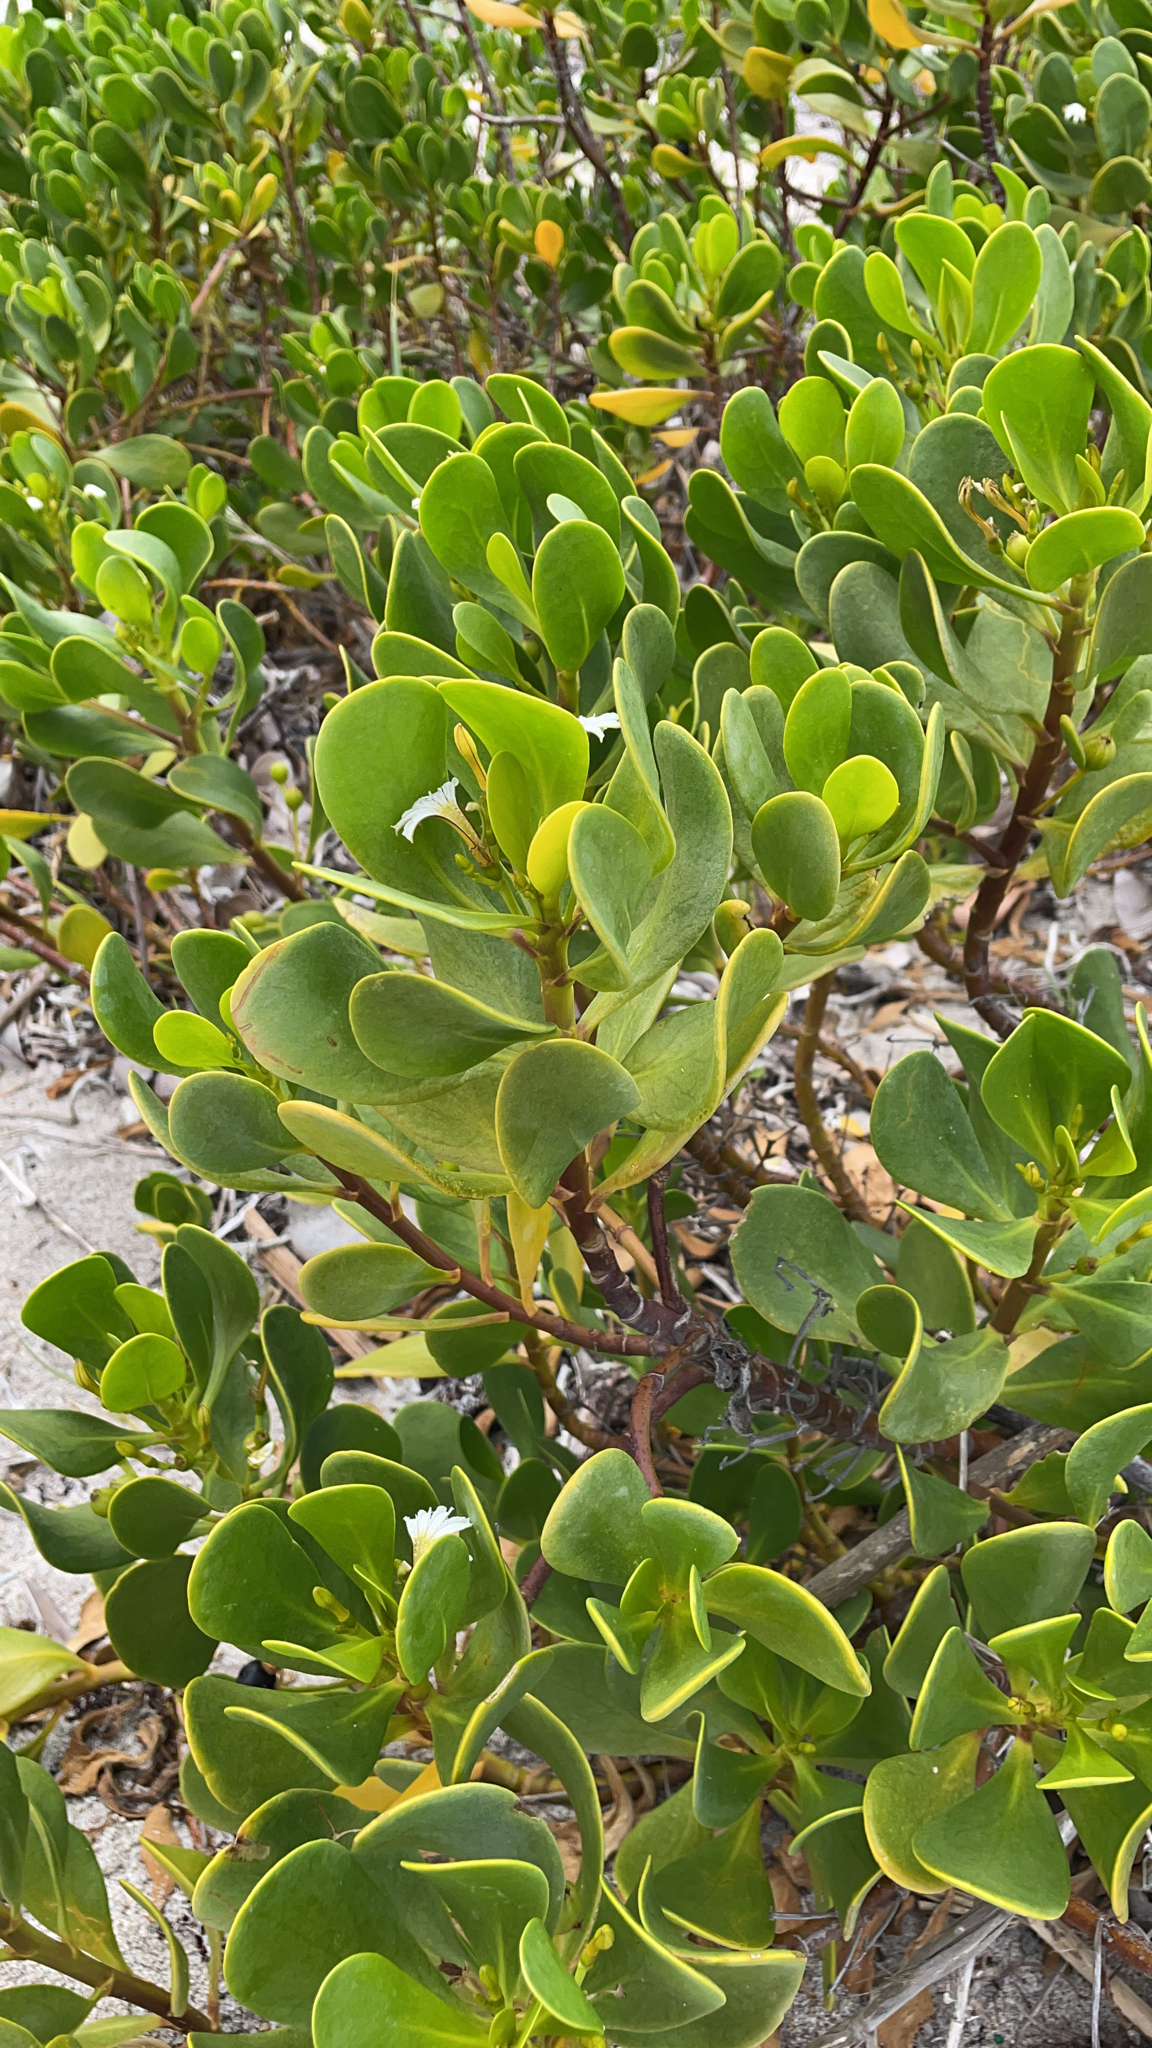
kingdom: Plantae
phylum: Tracheophyta
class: Magnoliopsida
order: Asterales
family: Goodeniaceae
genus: Scaevola
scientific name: Scaevola plumieri
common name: Gull feed
